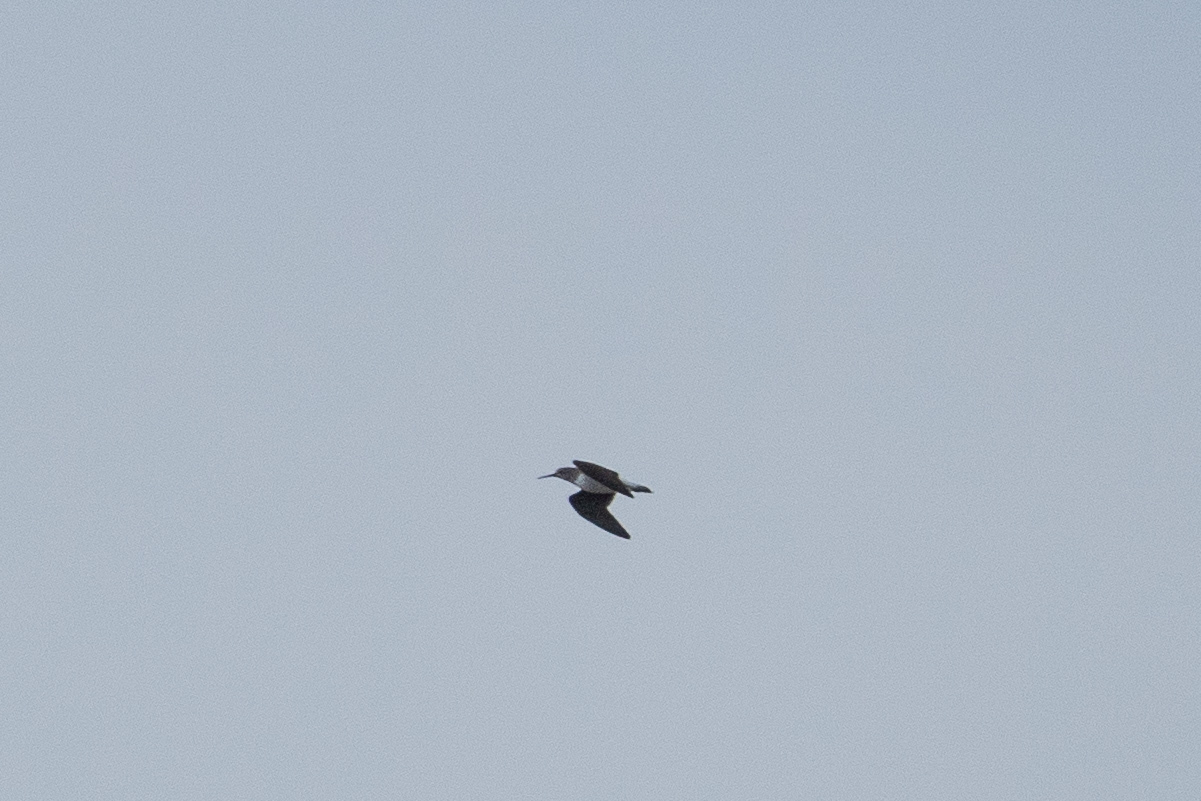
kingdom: Animalia
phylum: Chordata
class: Aves
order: Charadriiformes
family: Scolopacidae
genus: Tringa
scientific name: Tringa ochropus
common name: Green sandpiper
